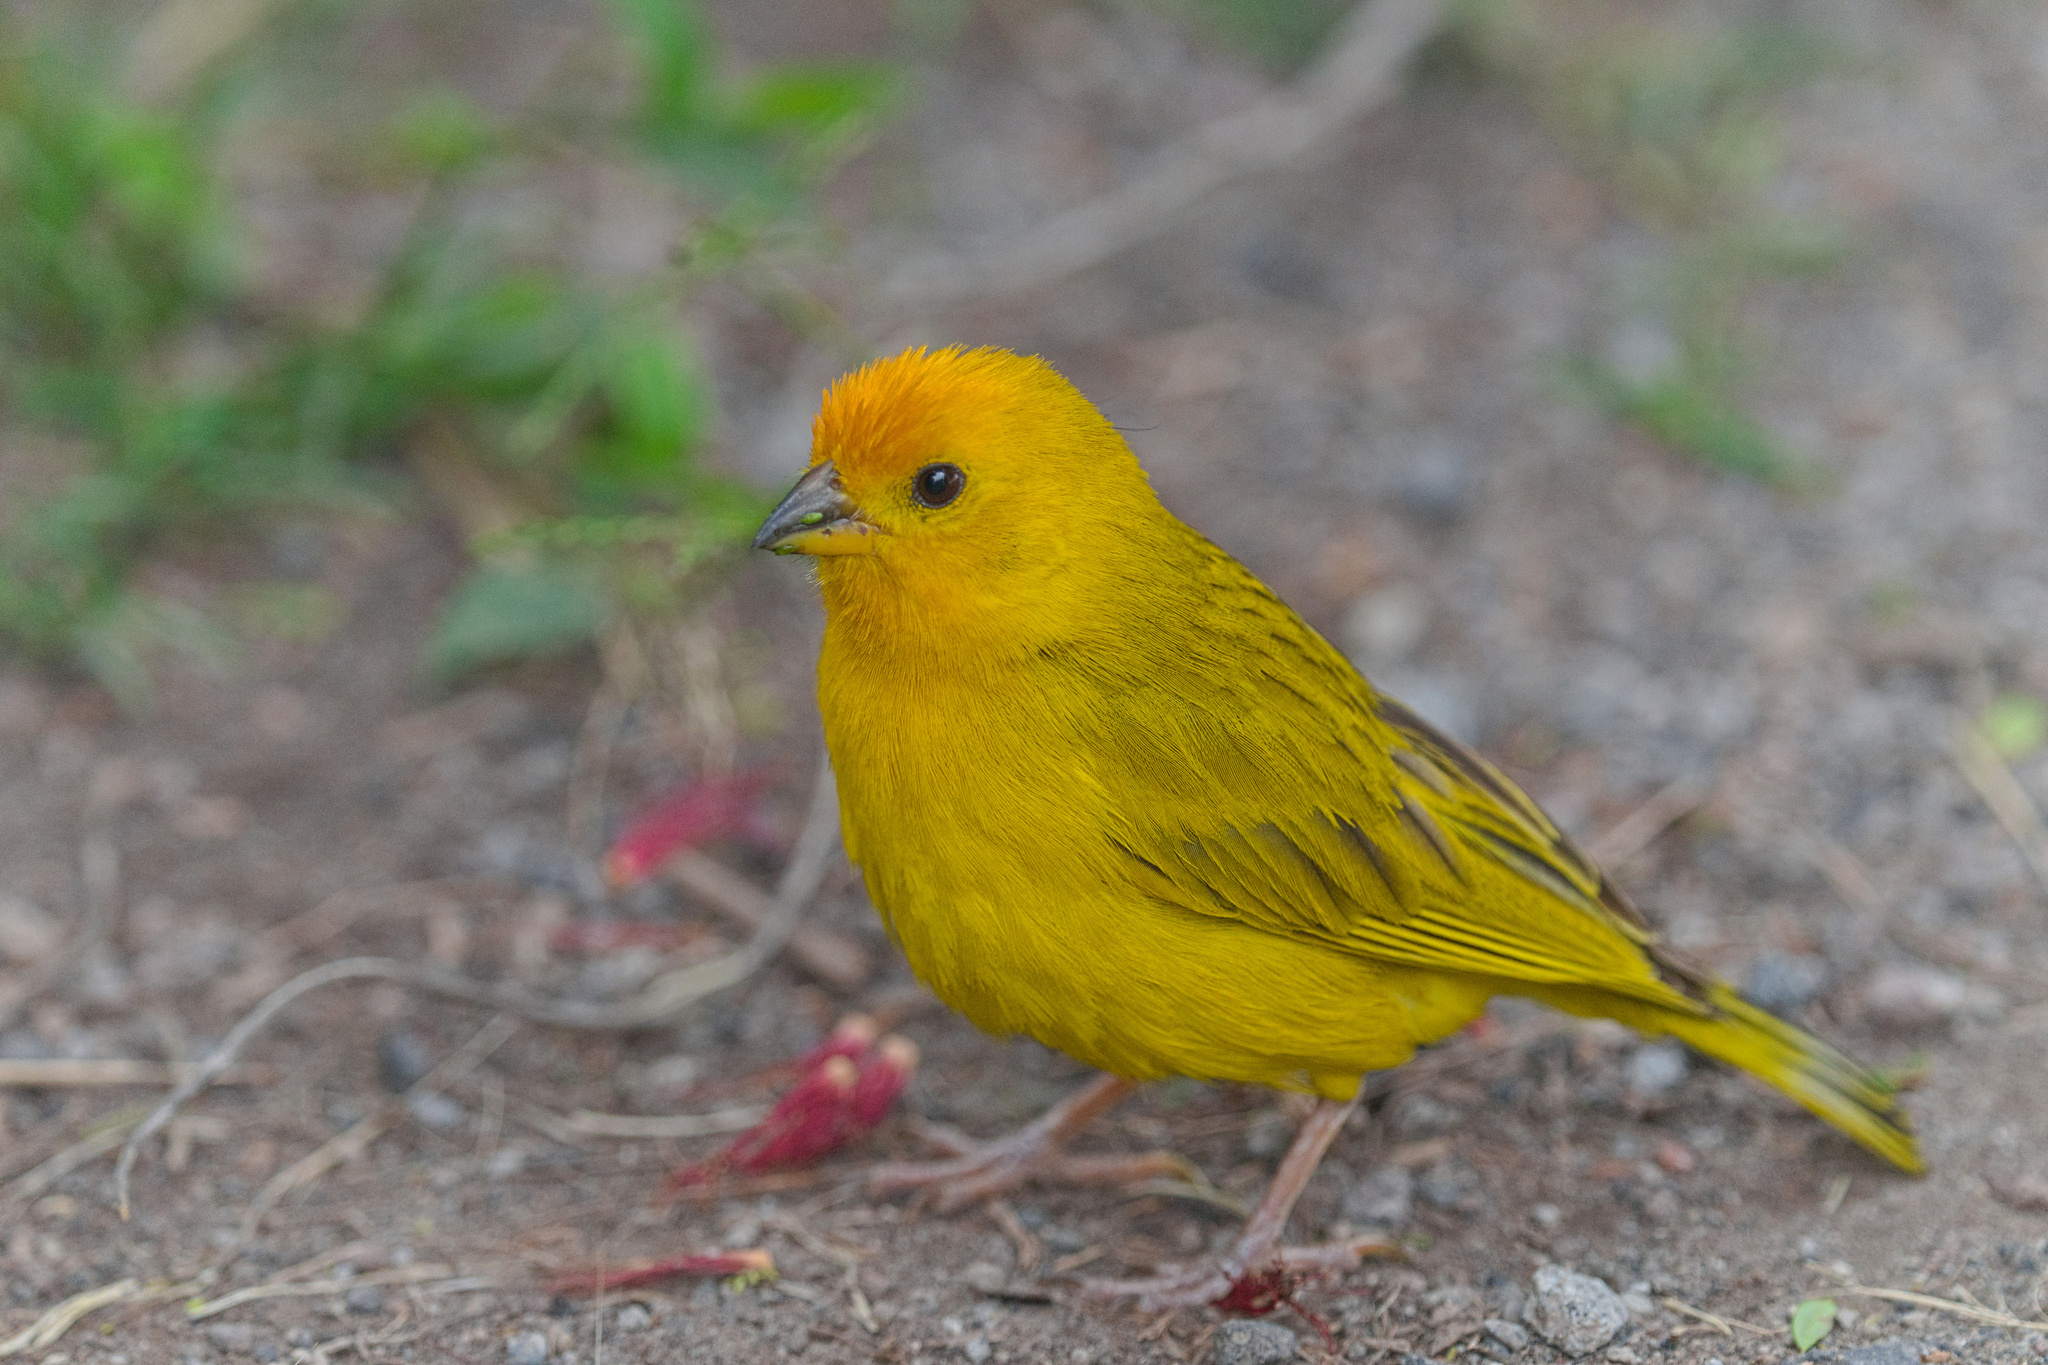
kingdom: Animalia
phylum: Chordata
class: Aves
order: Passeriformes
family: Thraupidae
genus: Sicalis
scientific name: Sicalis flaveola
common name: Saffron finch
